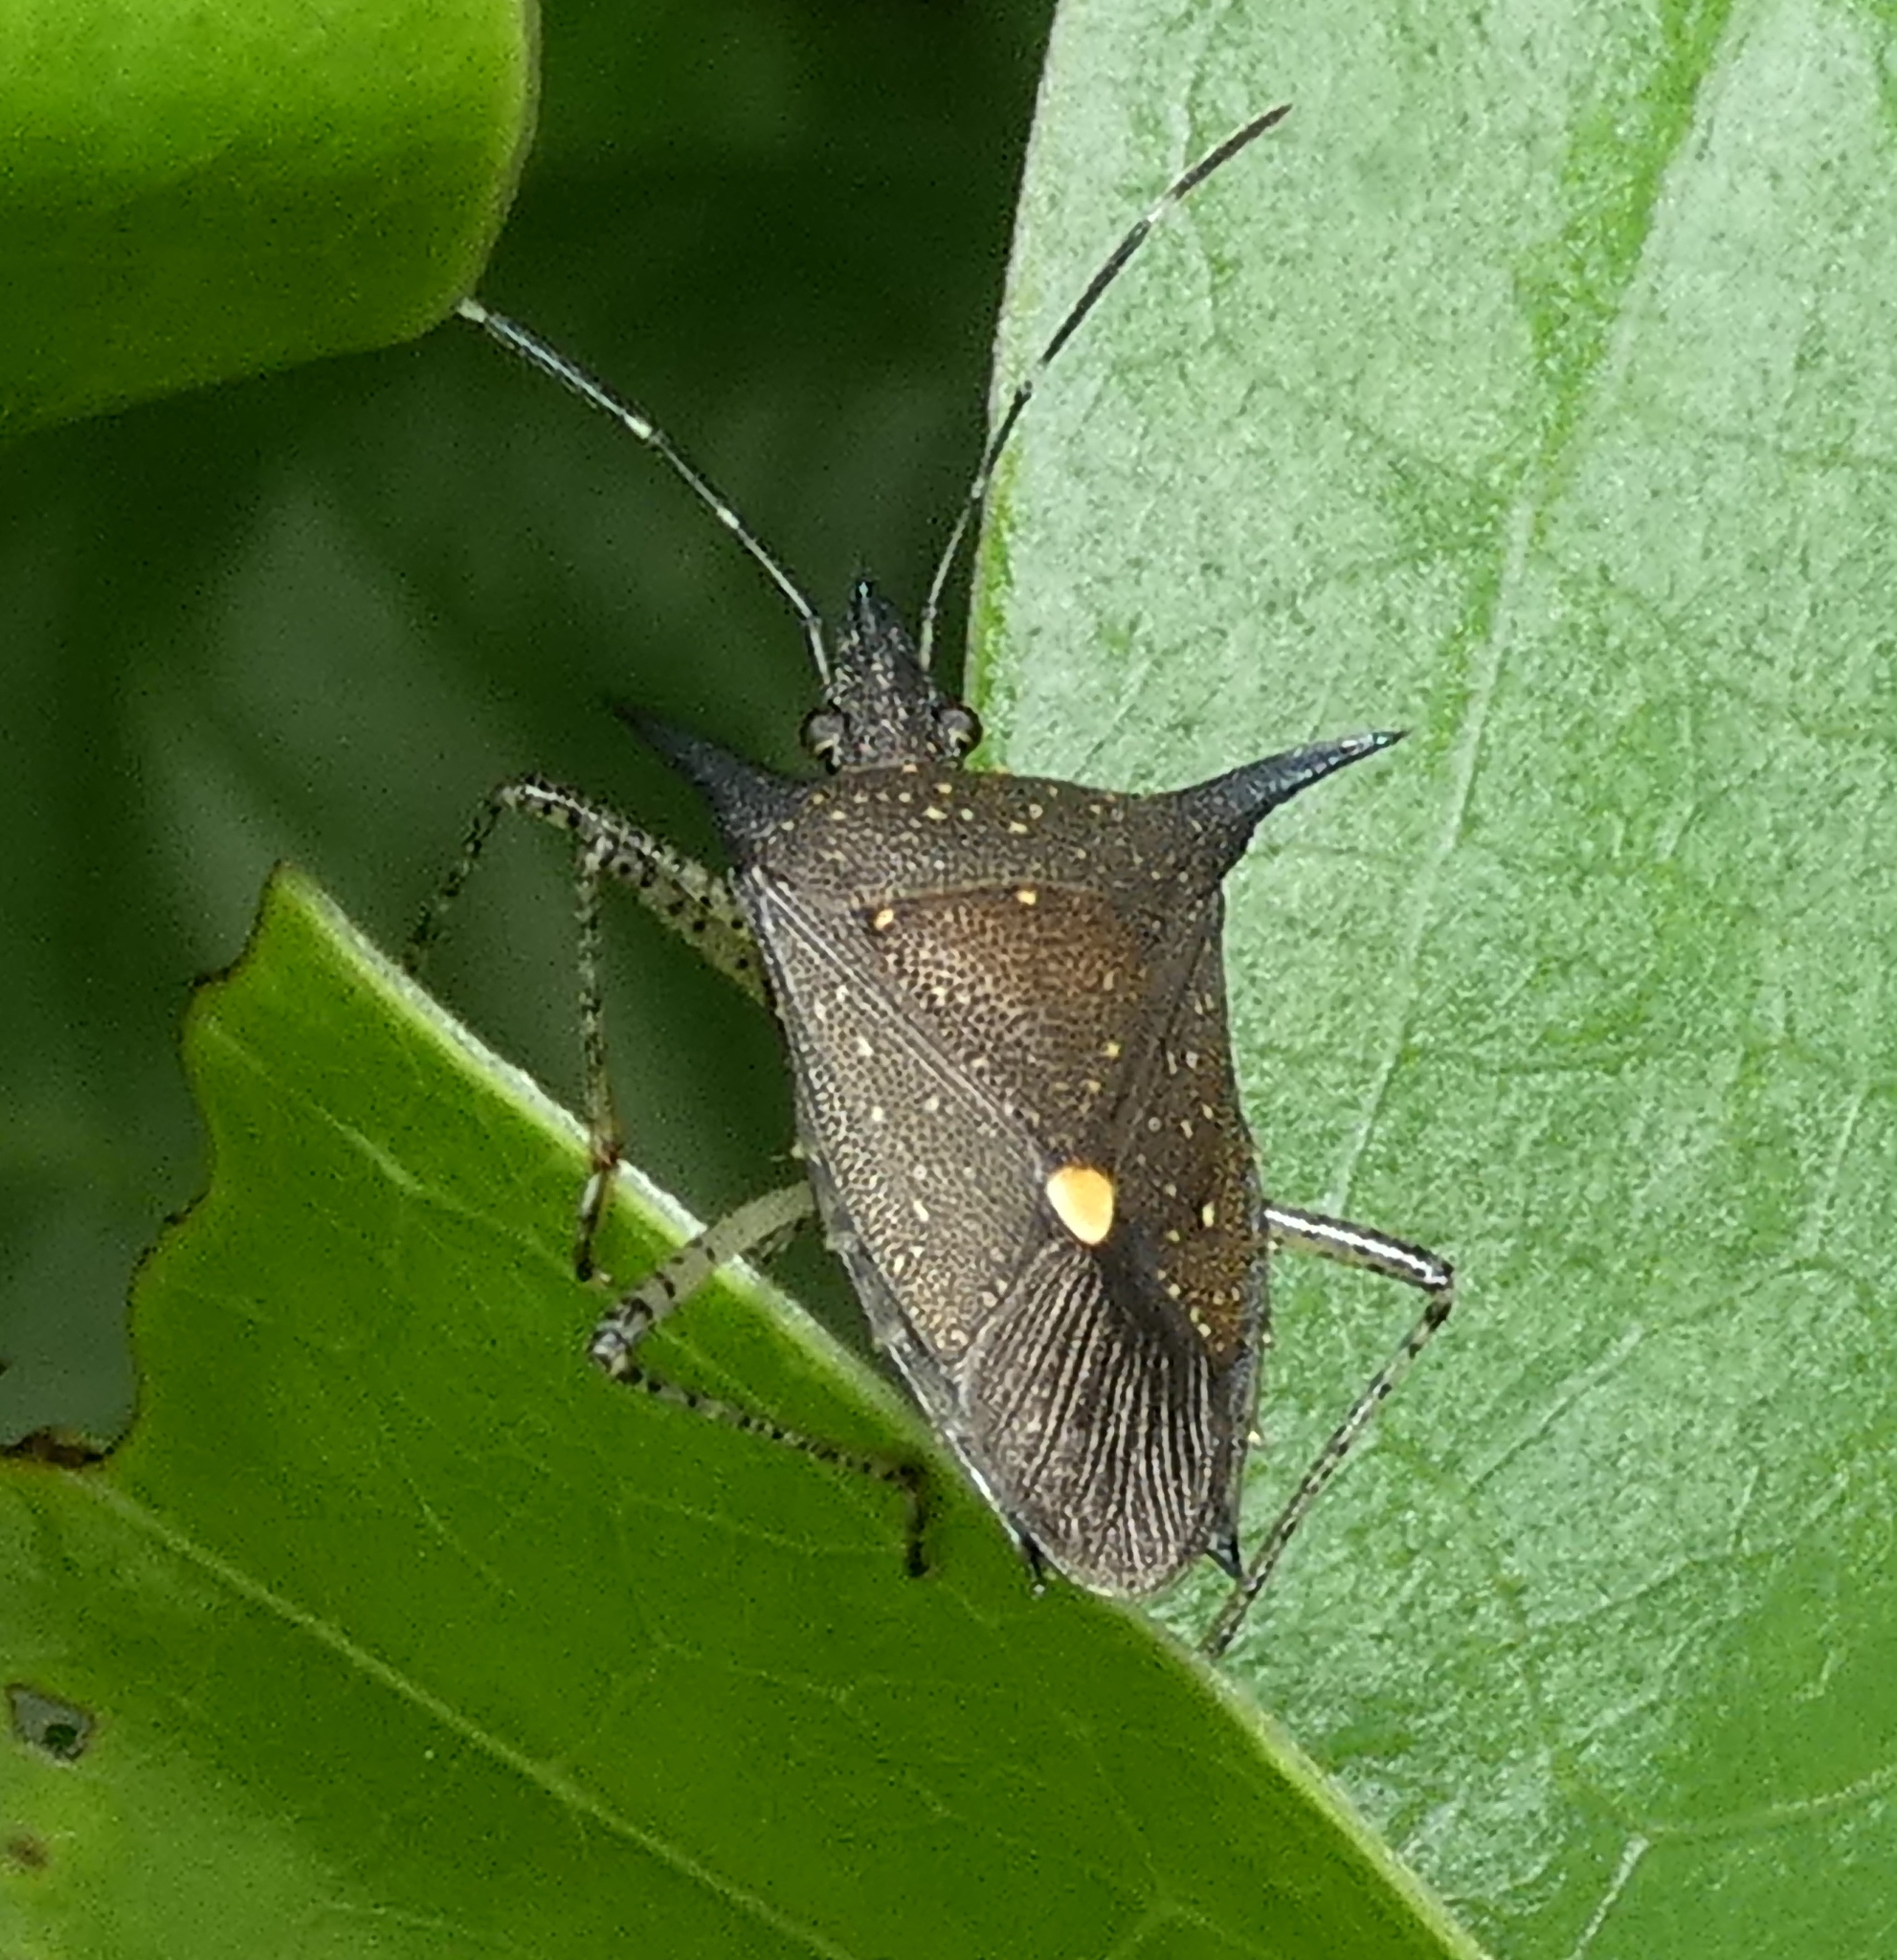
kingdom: Animalia
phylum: Arthropoda
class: Insecta
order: Hemiptera
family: Pentatomidae
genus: Proxys
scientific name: Proxys albopunctulatus
